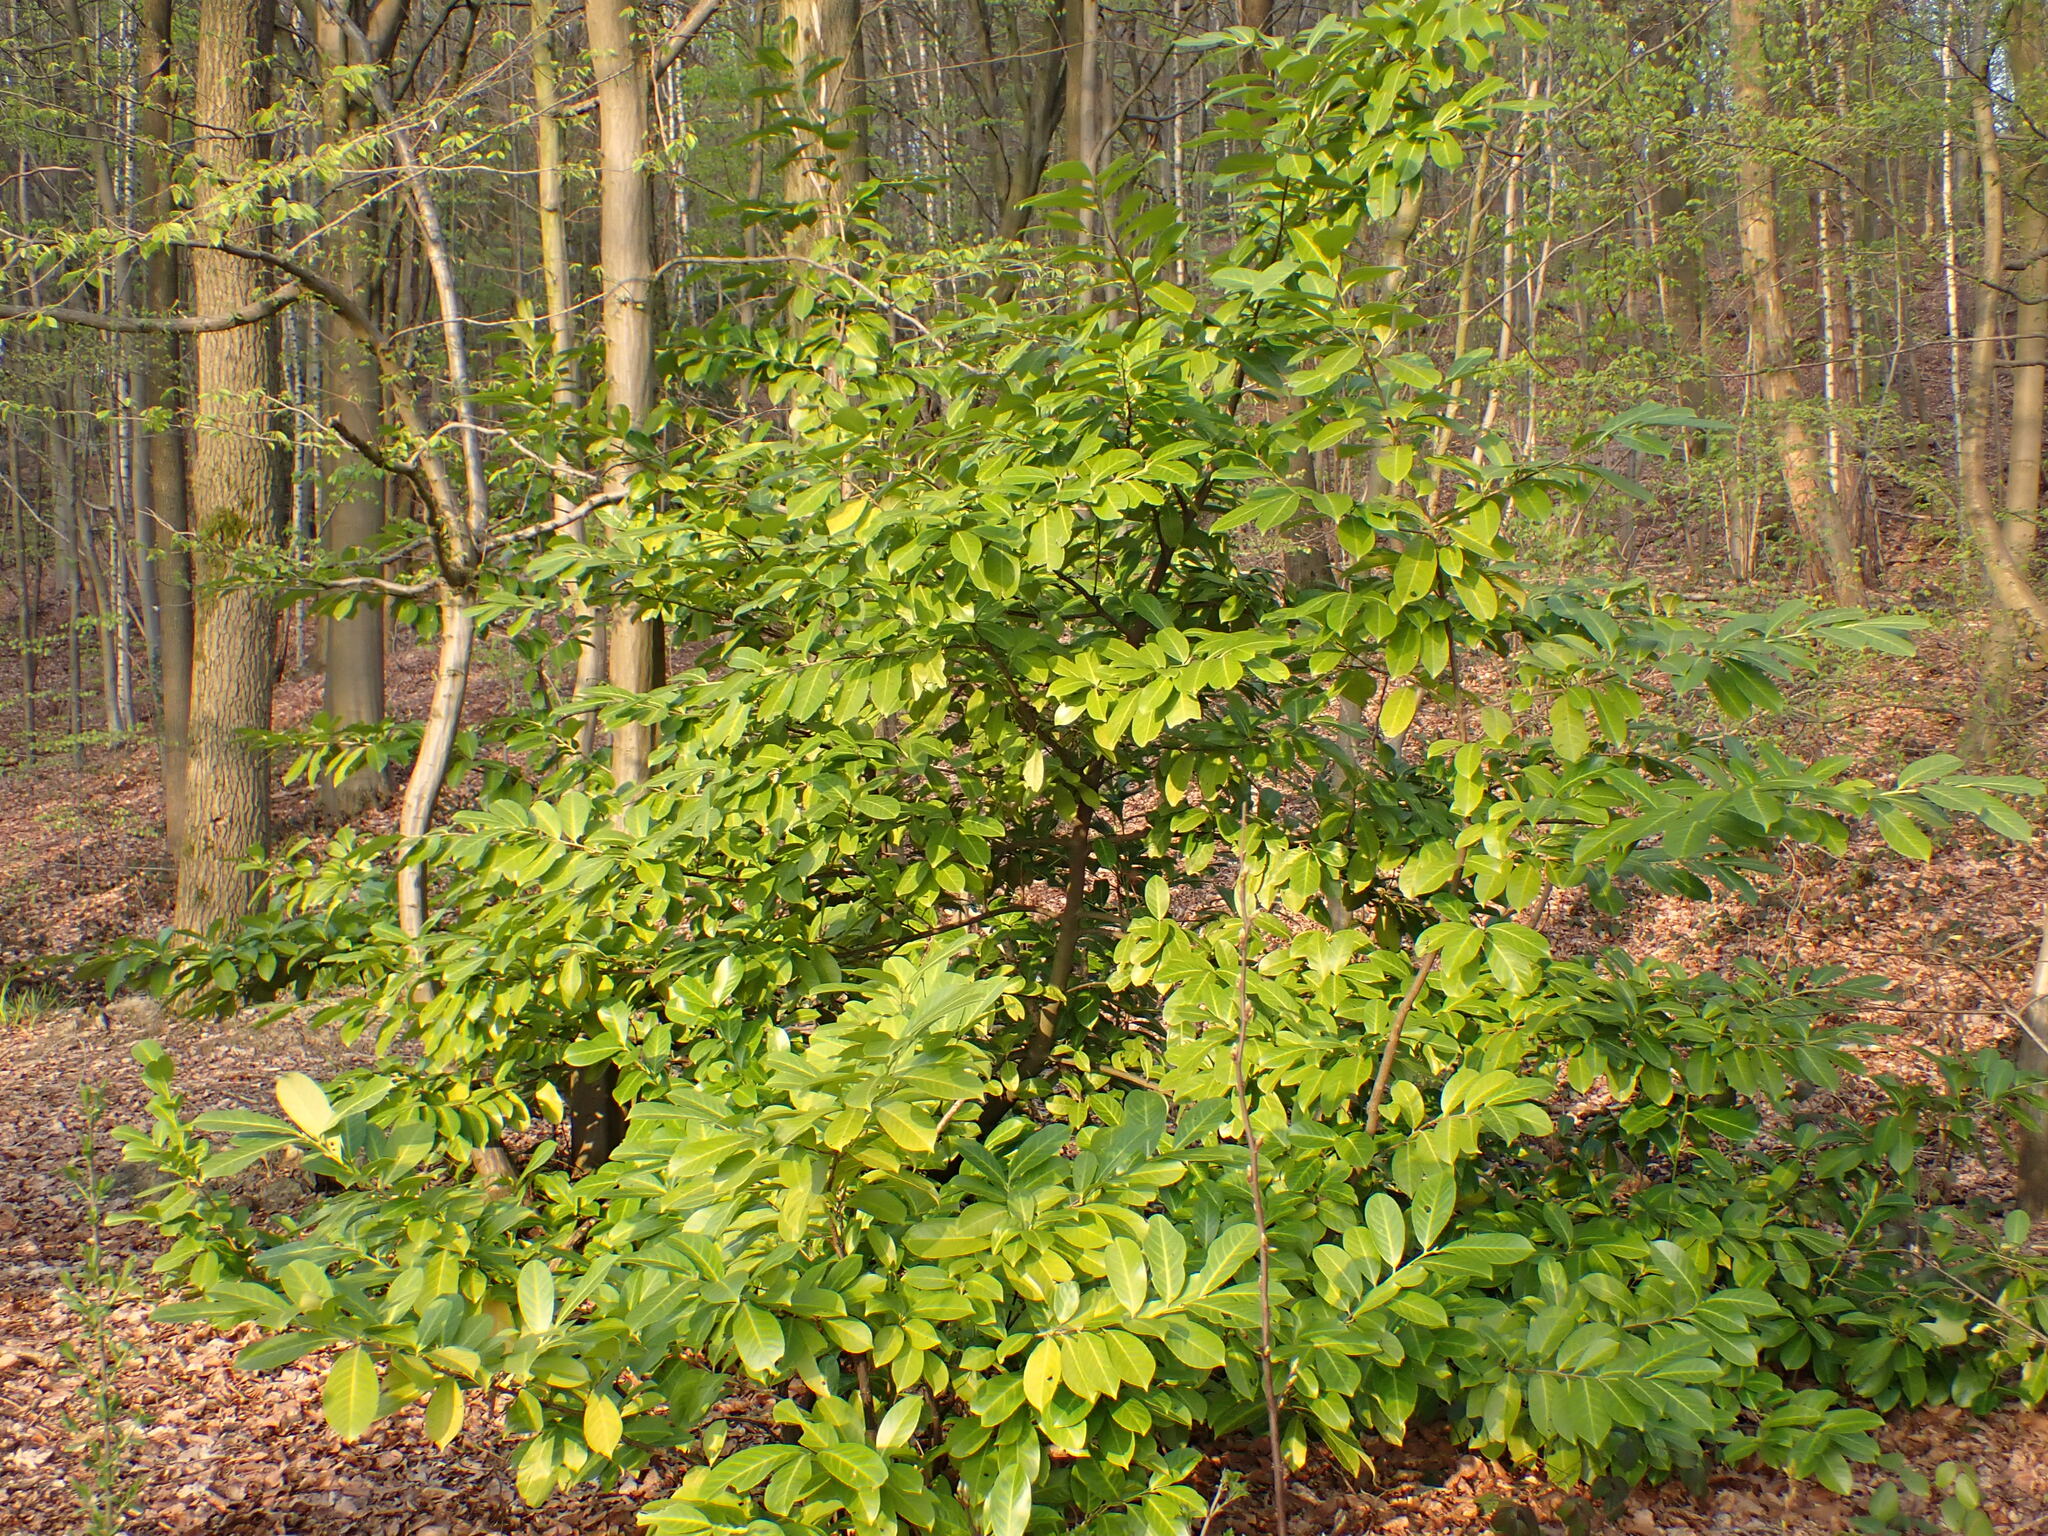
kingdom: Plantae
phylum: Tracheophyta
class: Magnoliopsida
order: Rosales
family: Rosaceae
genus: Prunus
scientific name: Prunus laurocerasus
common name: Cherry laurel
